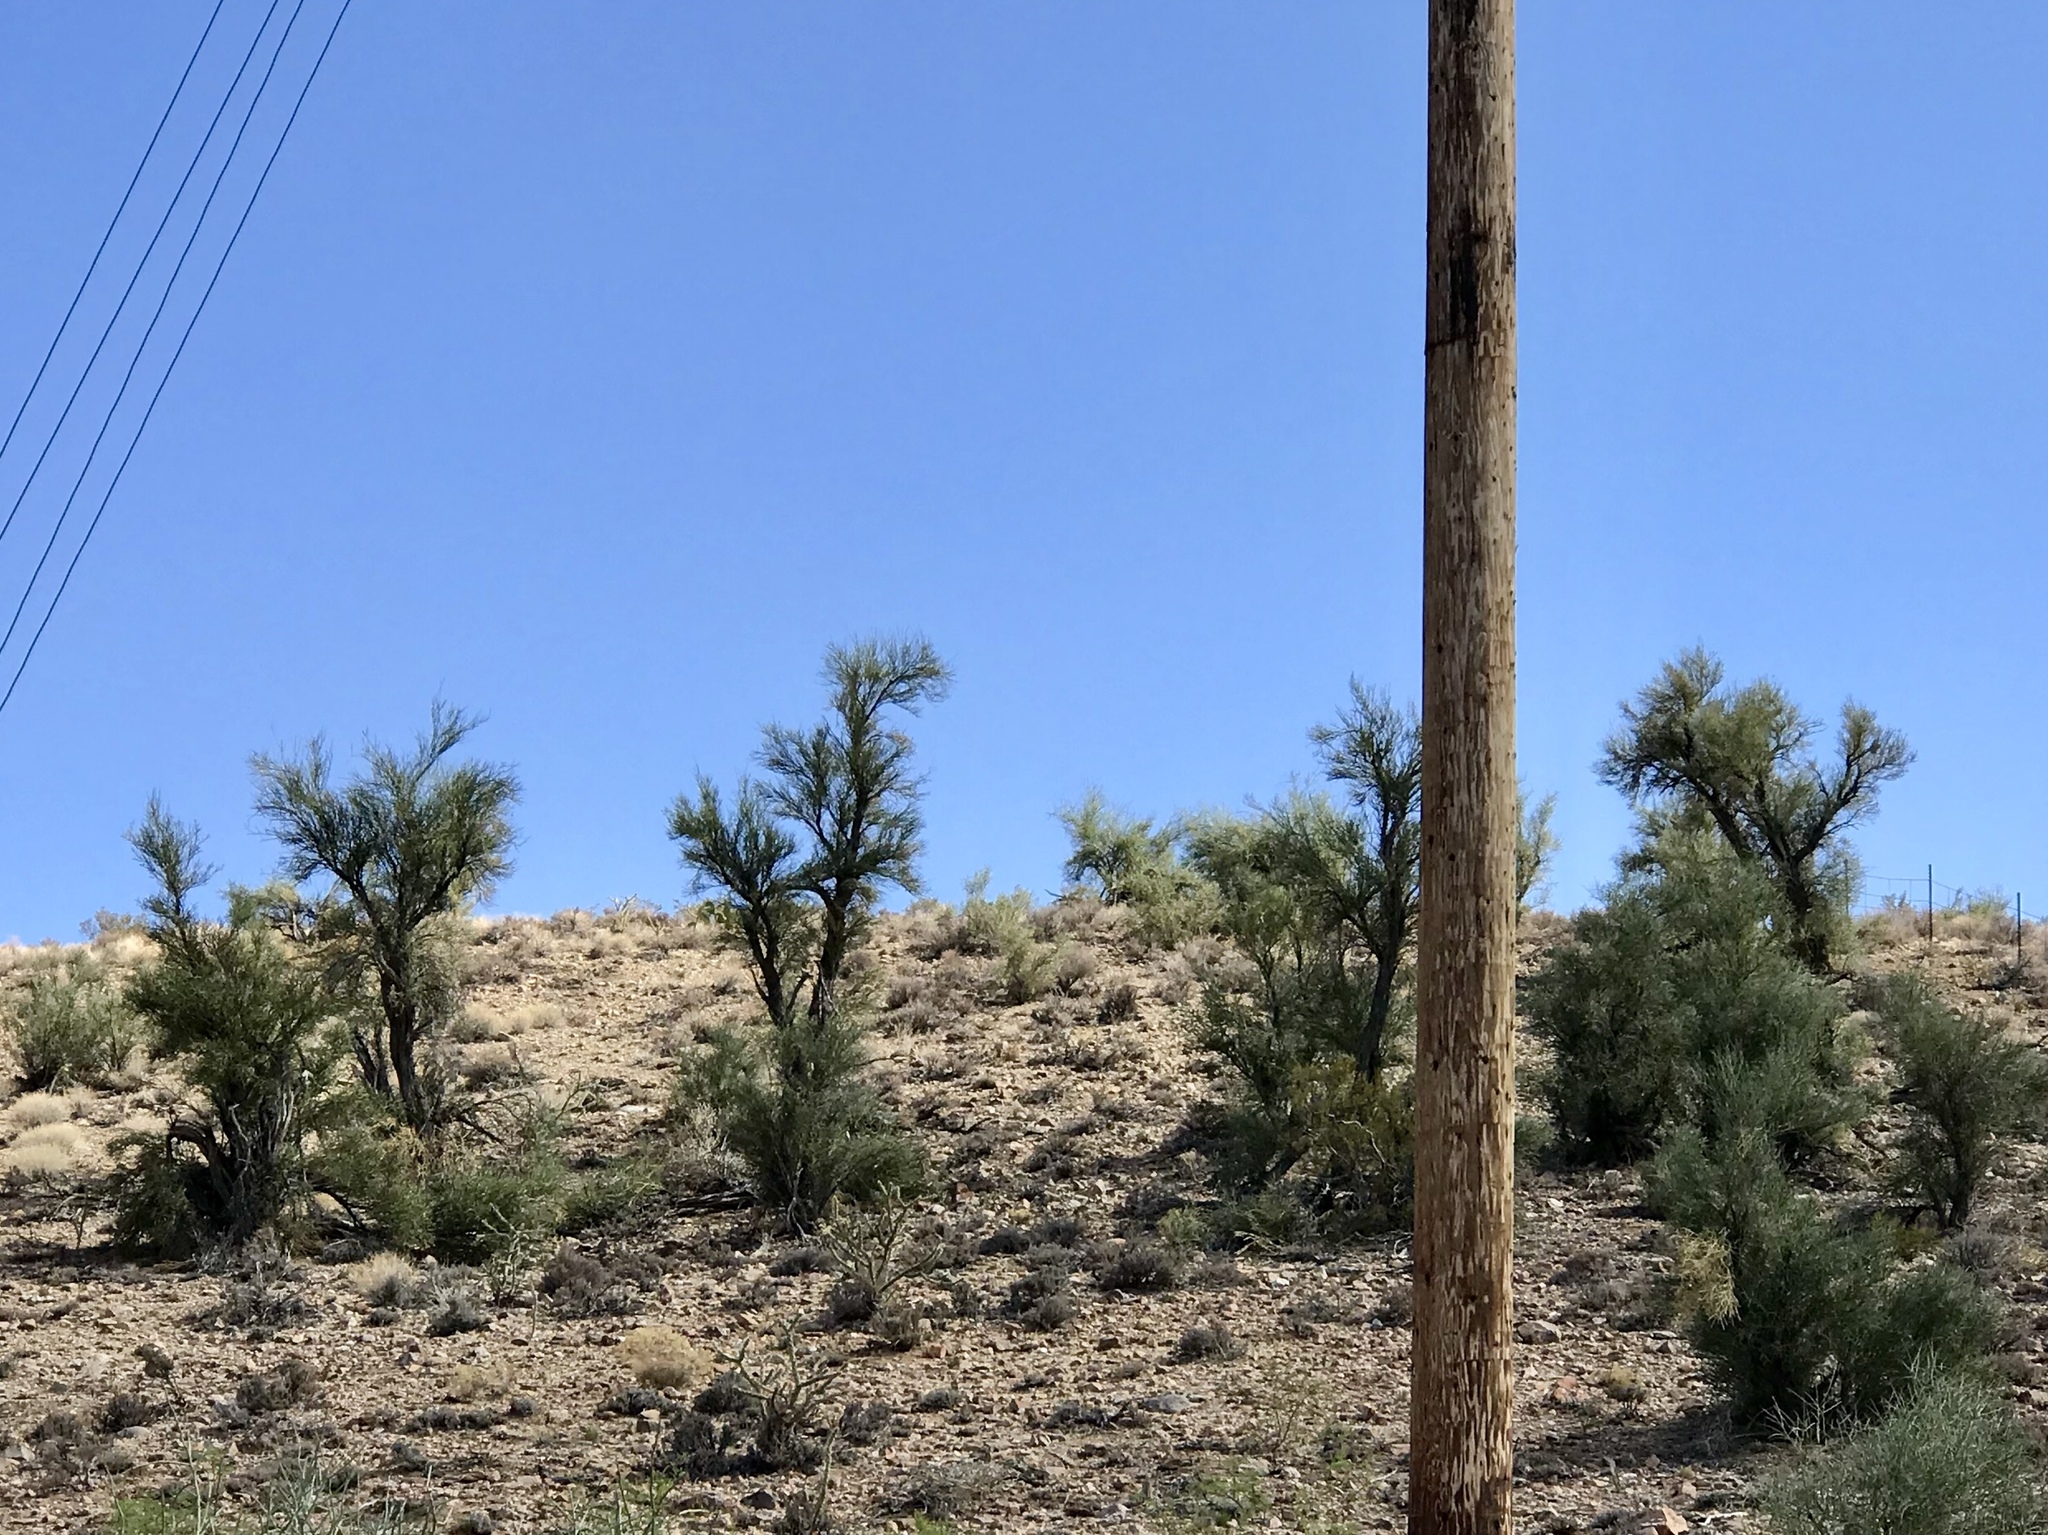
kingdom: Plantae
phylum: Tracheophyta
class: Magnoliopsida
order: Celastrales
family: Celastraceae
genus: Canotia
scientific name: Canotia holacantha
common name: Crucifixion thorns
